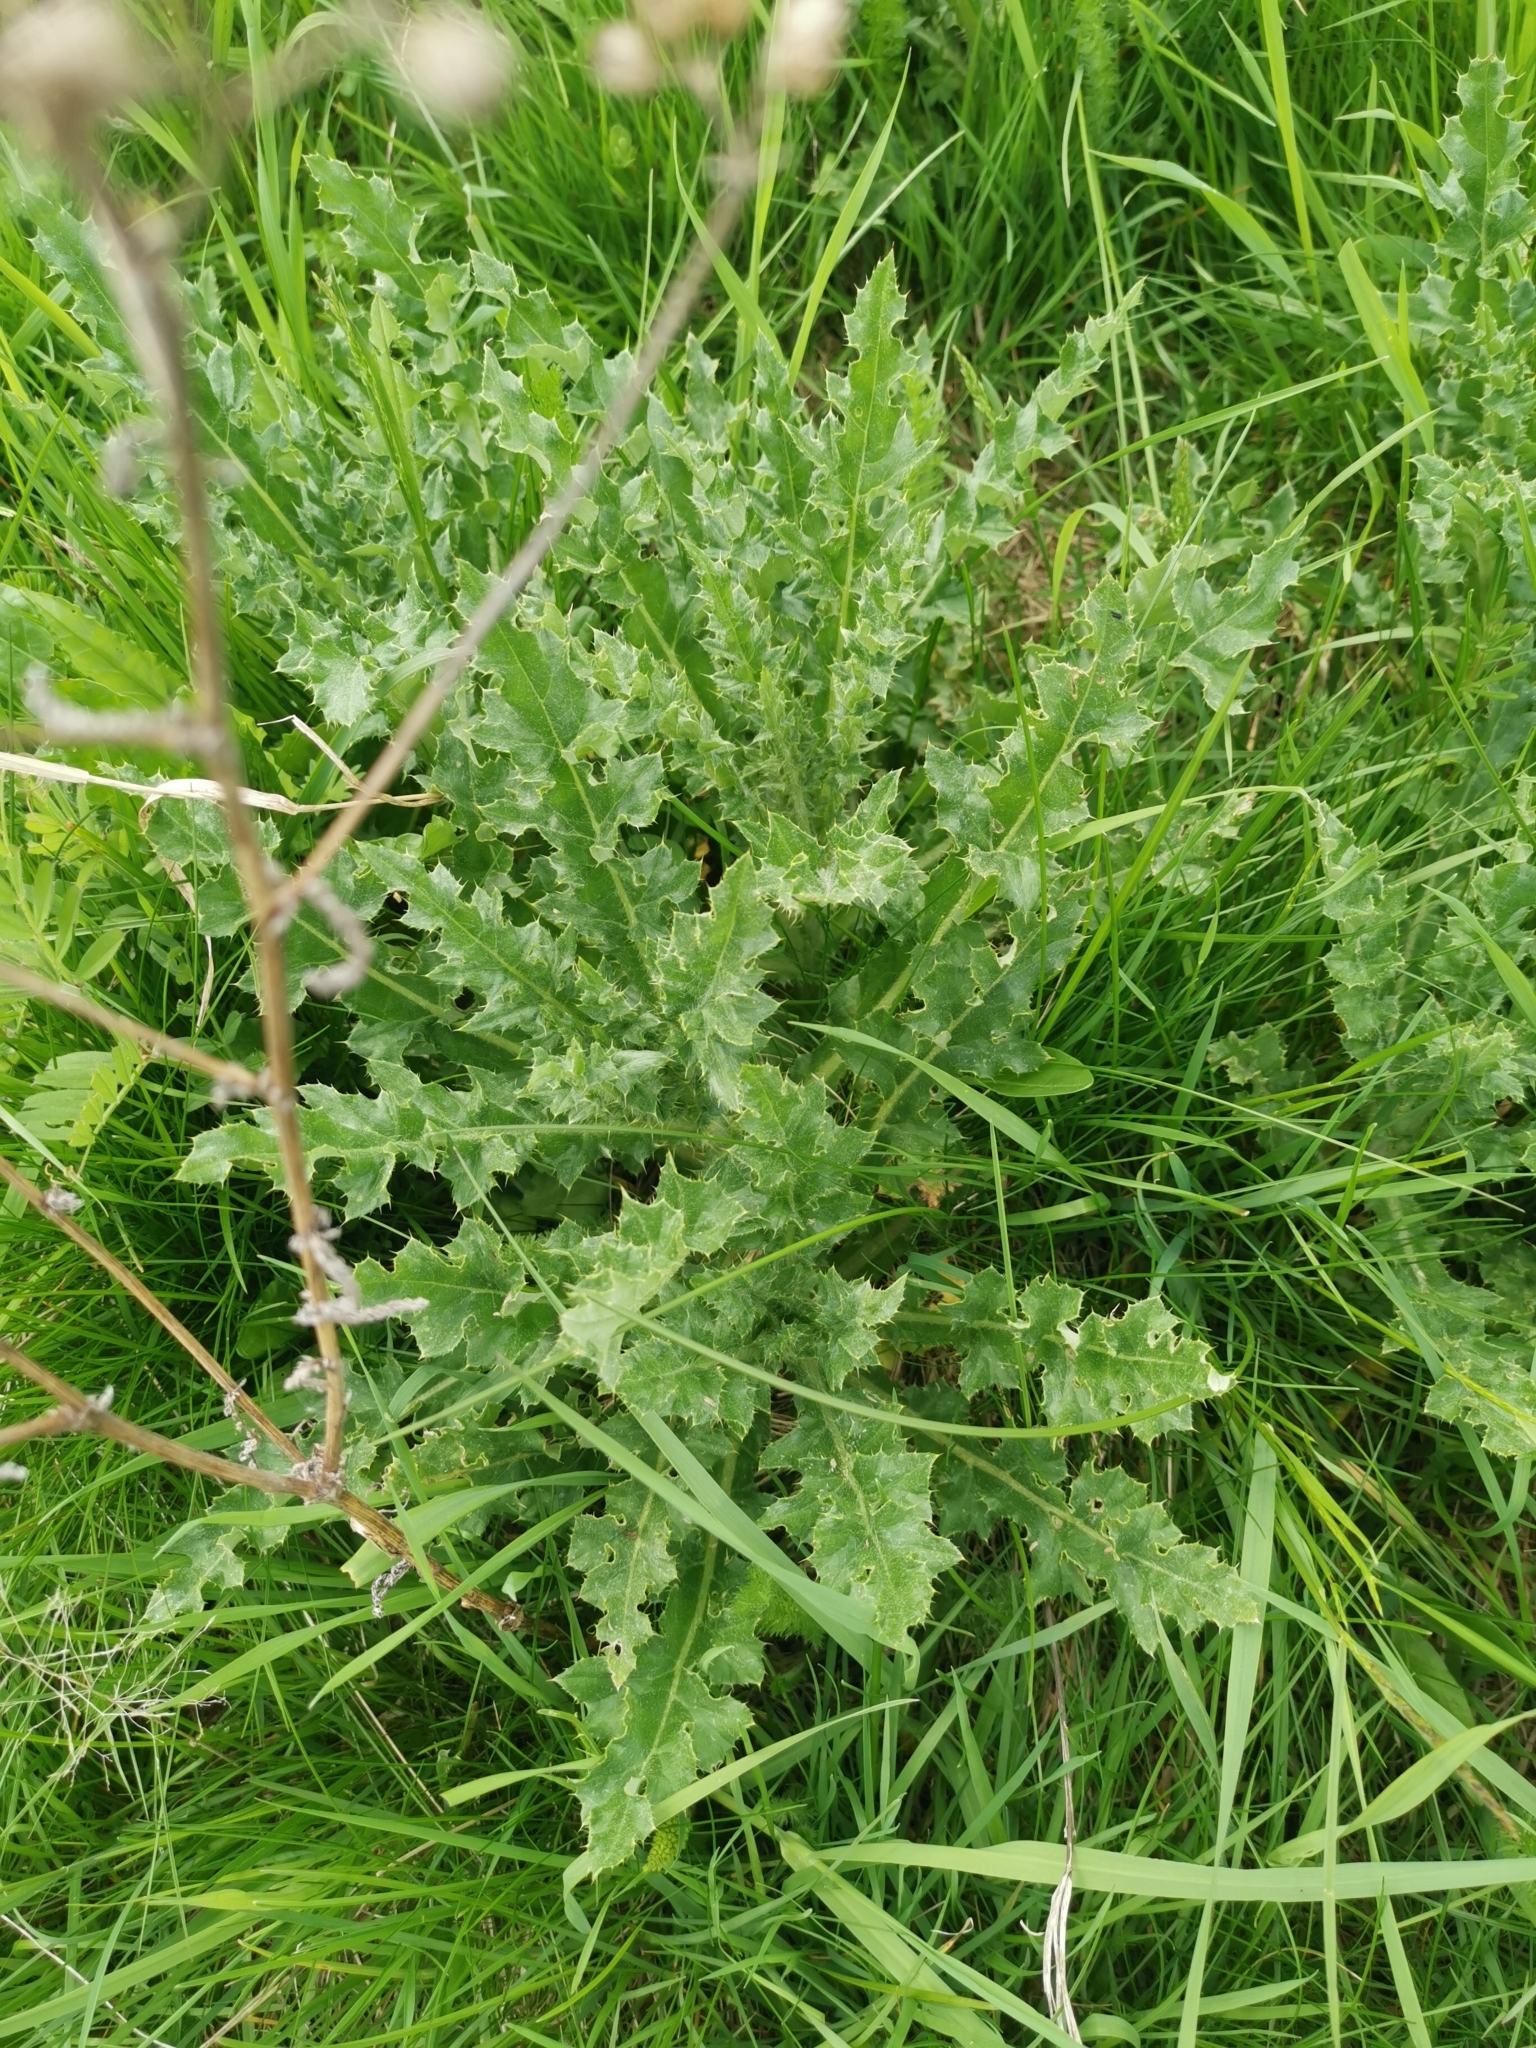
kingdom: Plantae
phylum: Tracheophyta
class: Magnoliopsida
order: Asterales
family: Asteraceae
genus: Cirsium
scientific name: Cirsium arvense
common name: Creeping thistle
